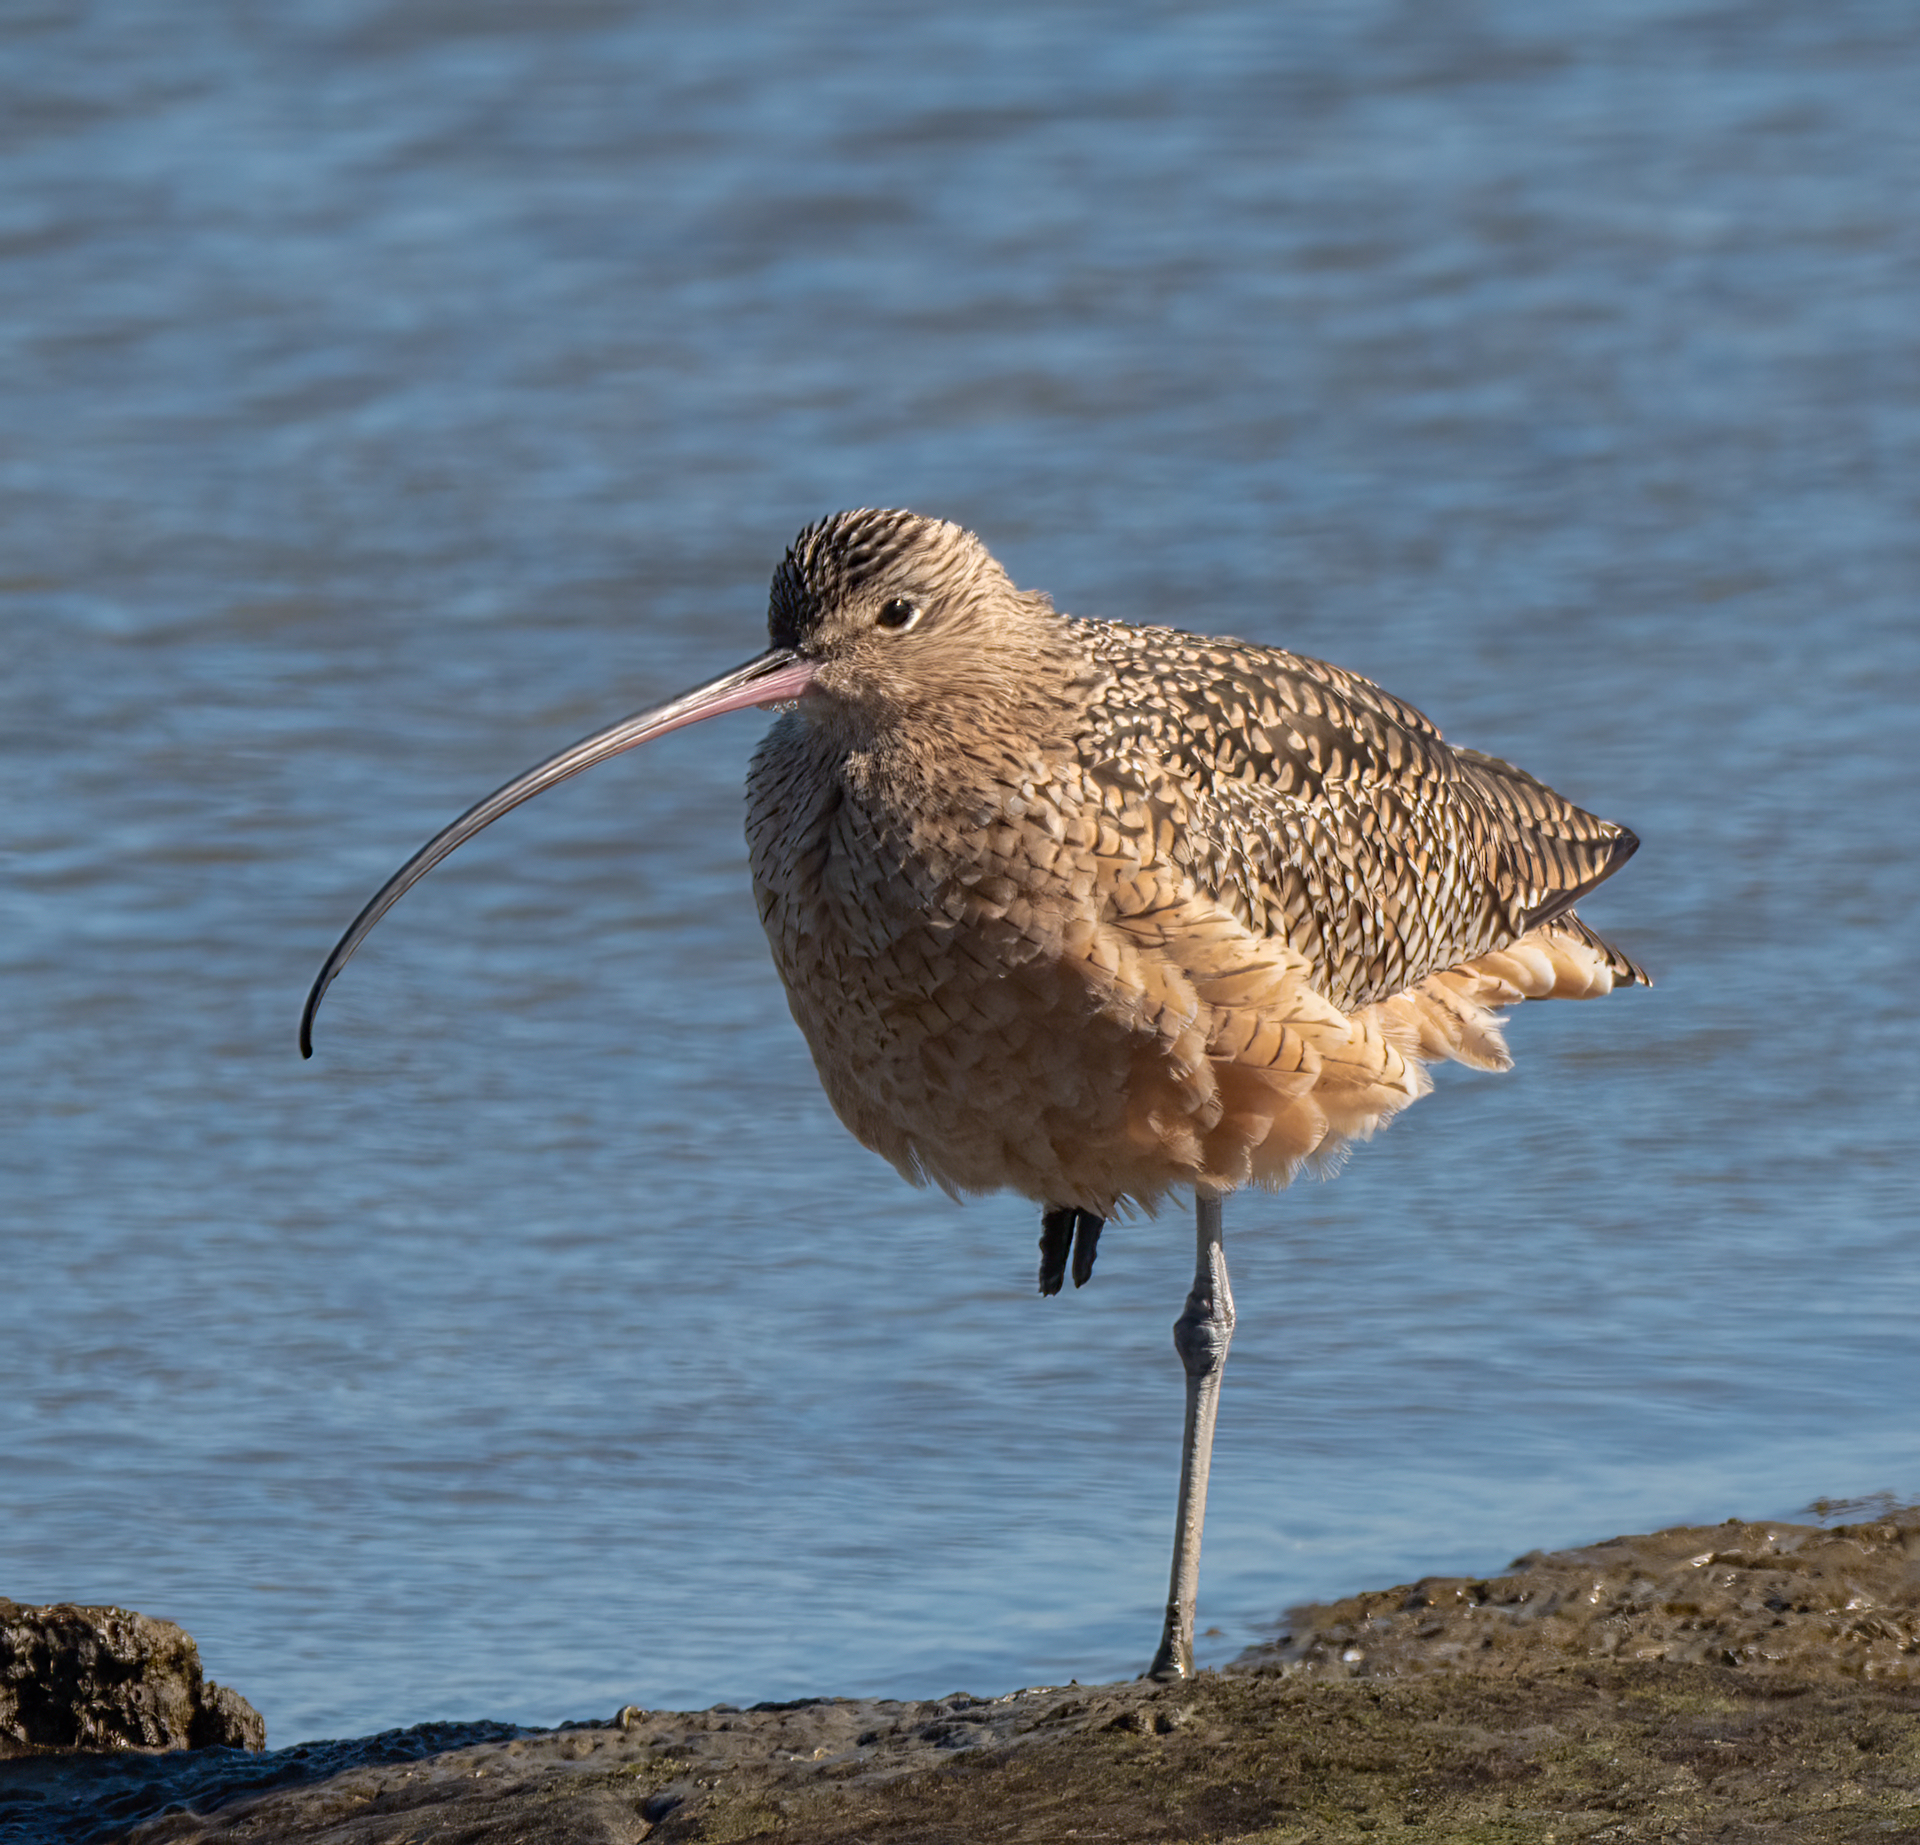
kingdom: Animalia
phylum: Chordata
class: Aves
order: Charadriiformes
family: Scolopacidae
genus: Numenius
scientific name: Numenius americanus
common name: Long-billed curlew
